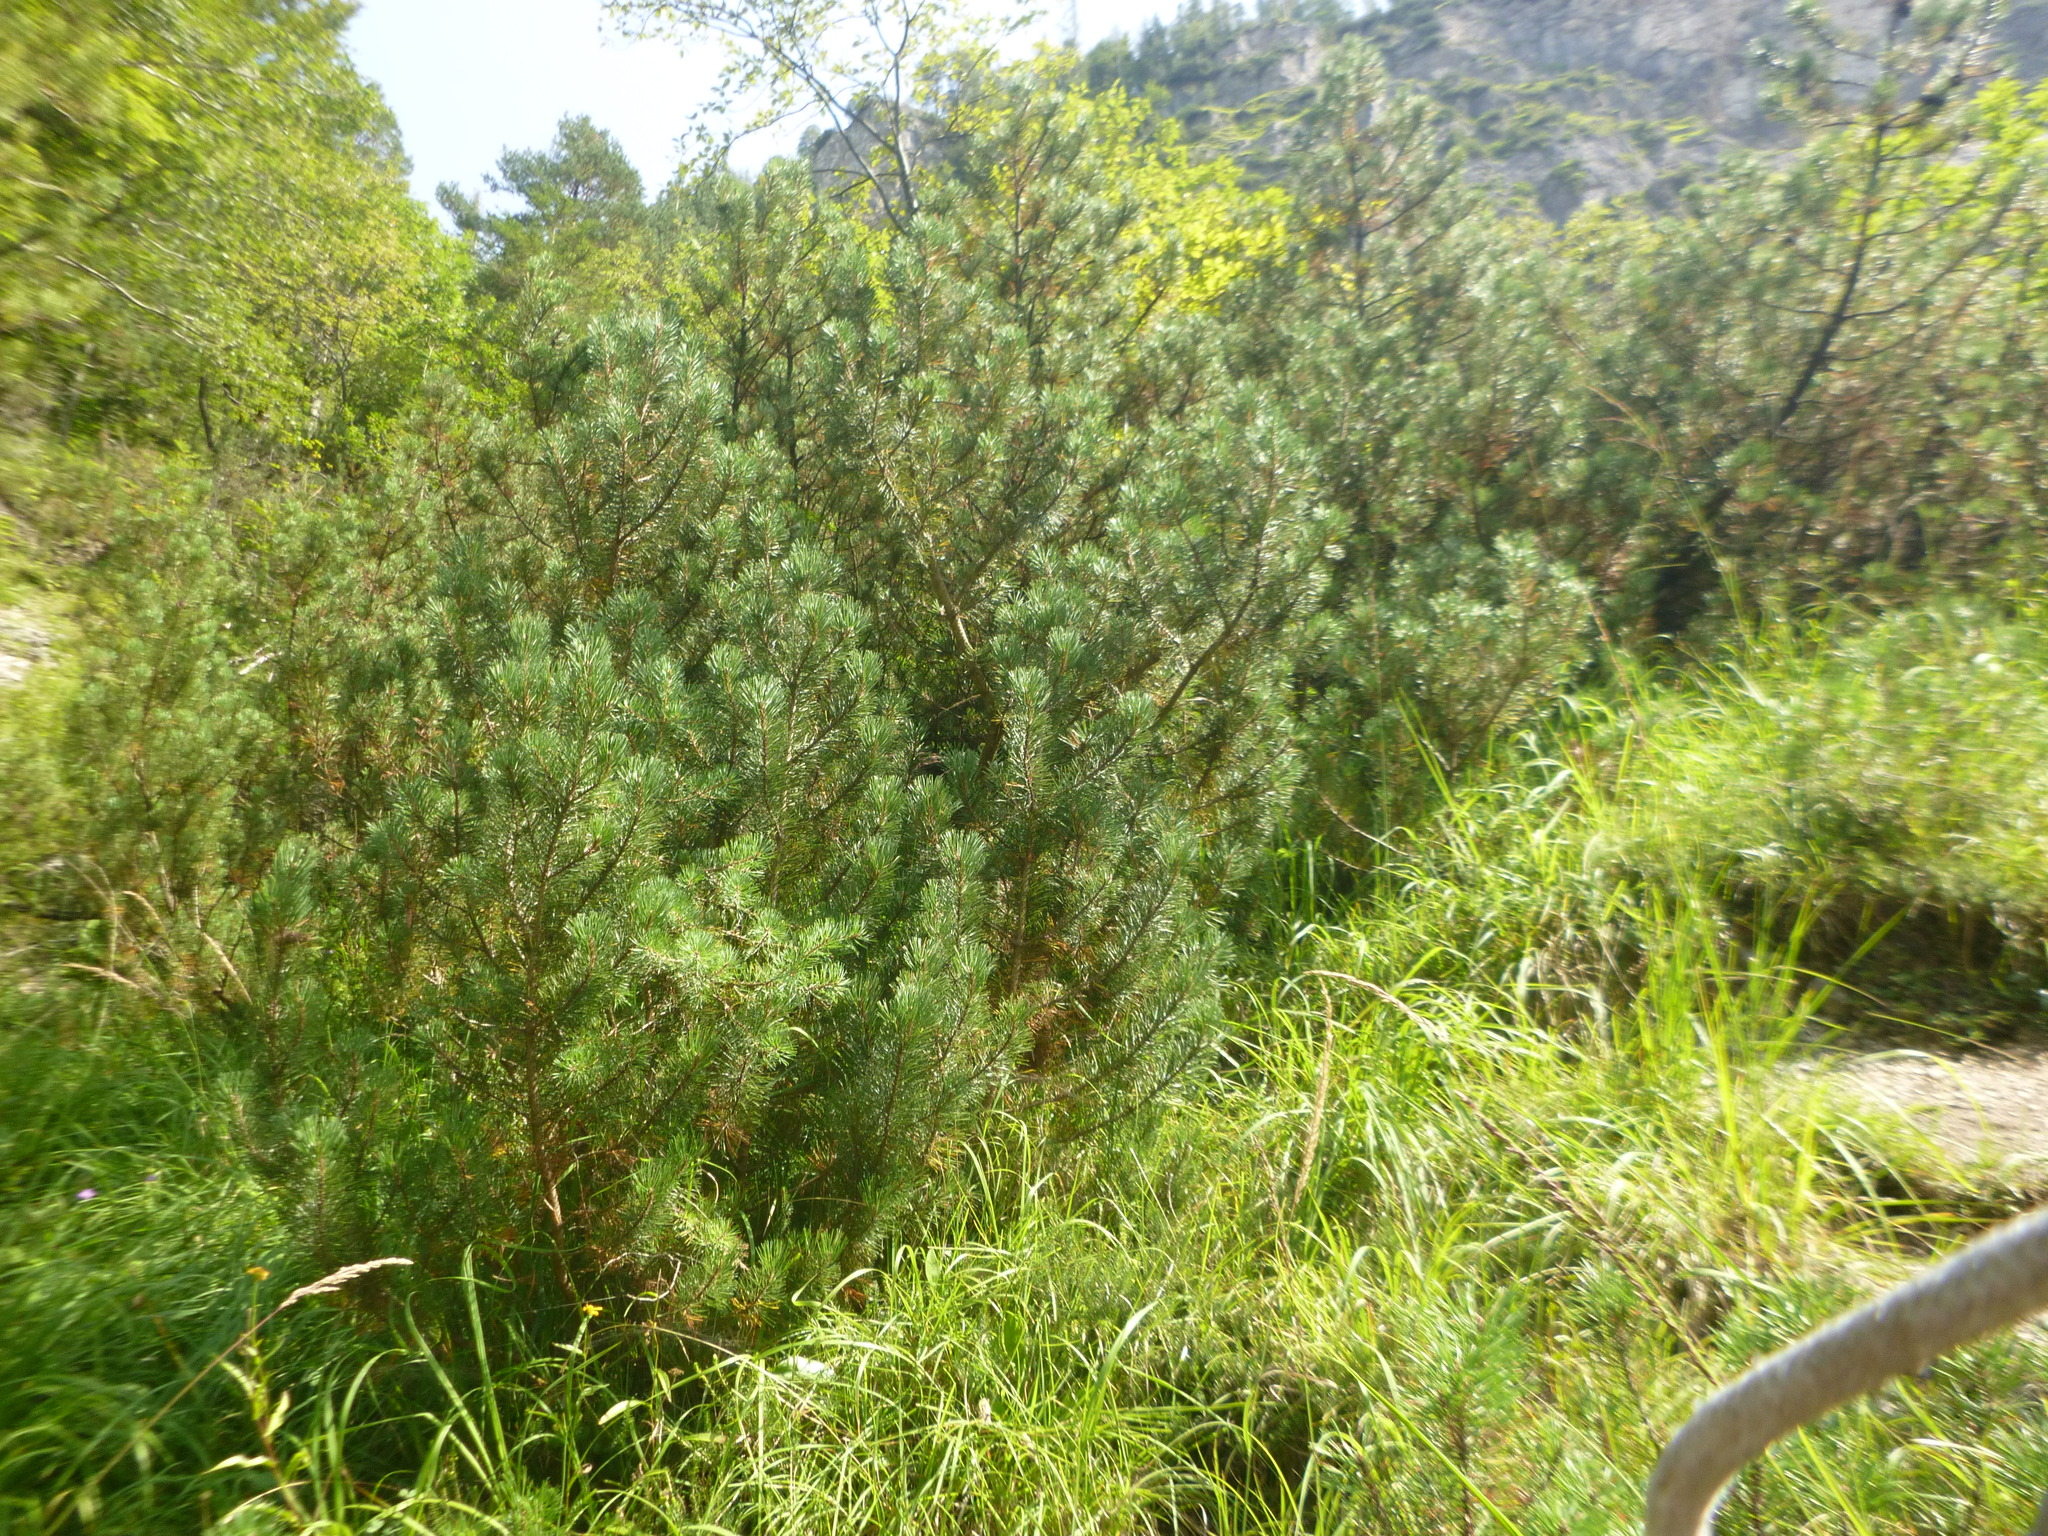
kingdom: Plantae
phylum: Tracheophyta
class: Pinopsida
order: Pinales
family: Pinaceae
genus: Pinus
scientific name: Pinus mugo
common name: Mugo pine
